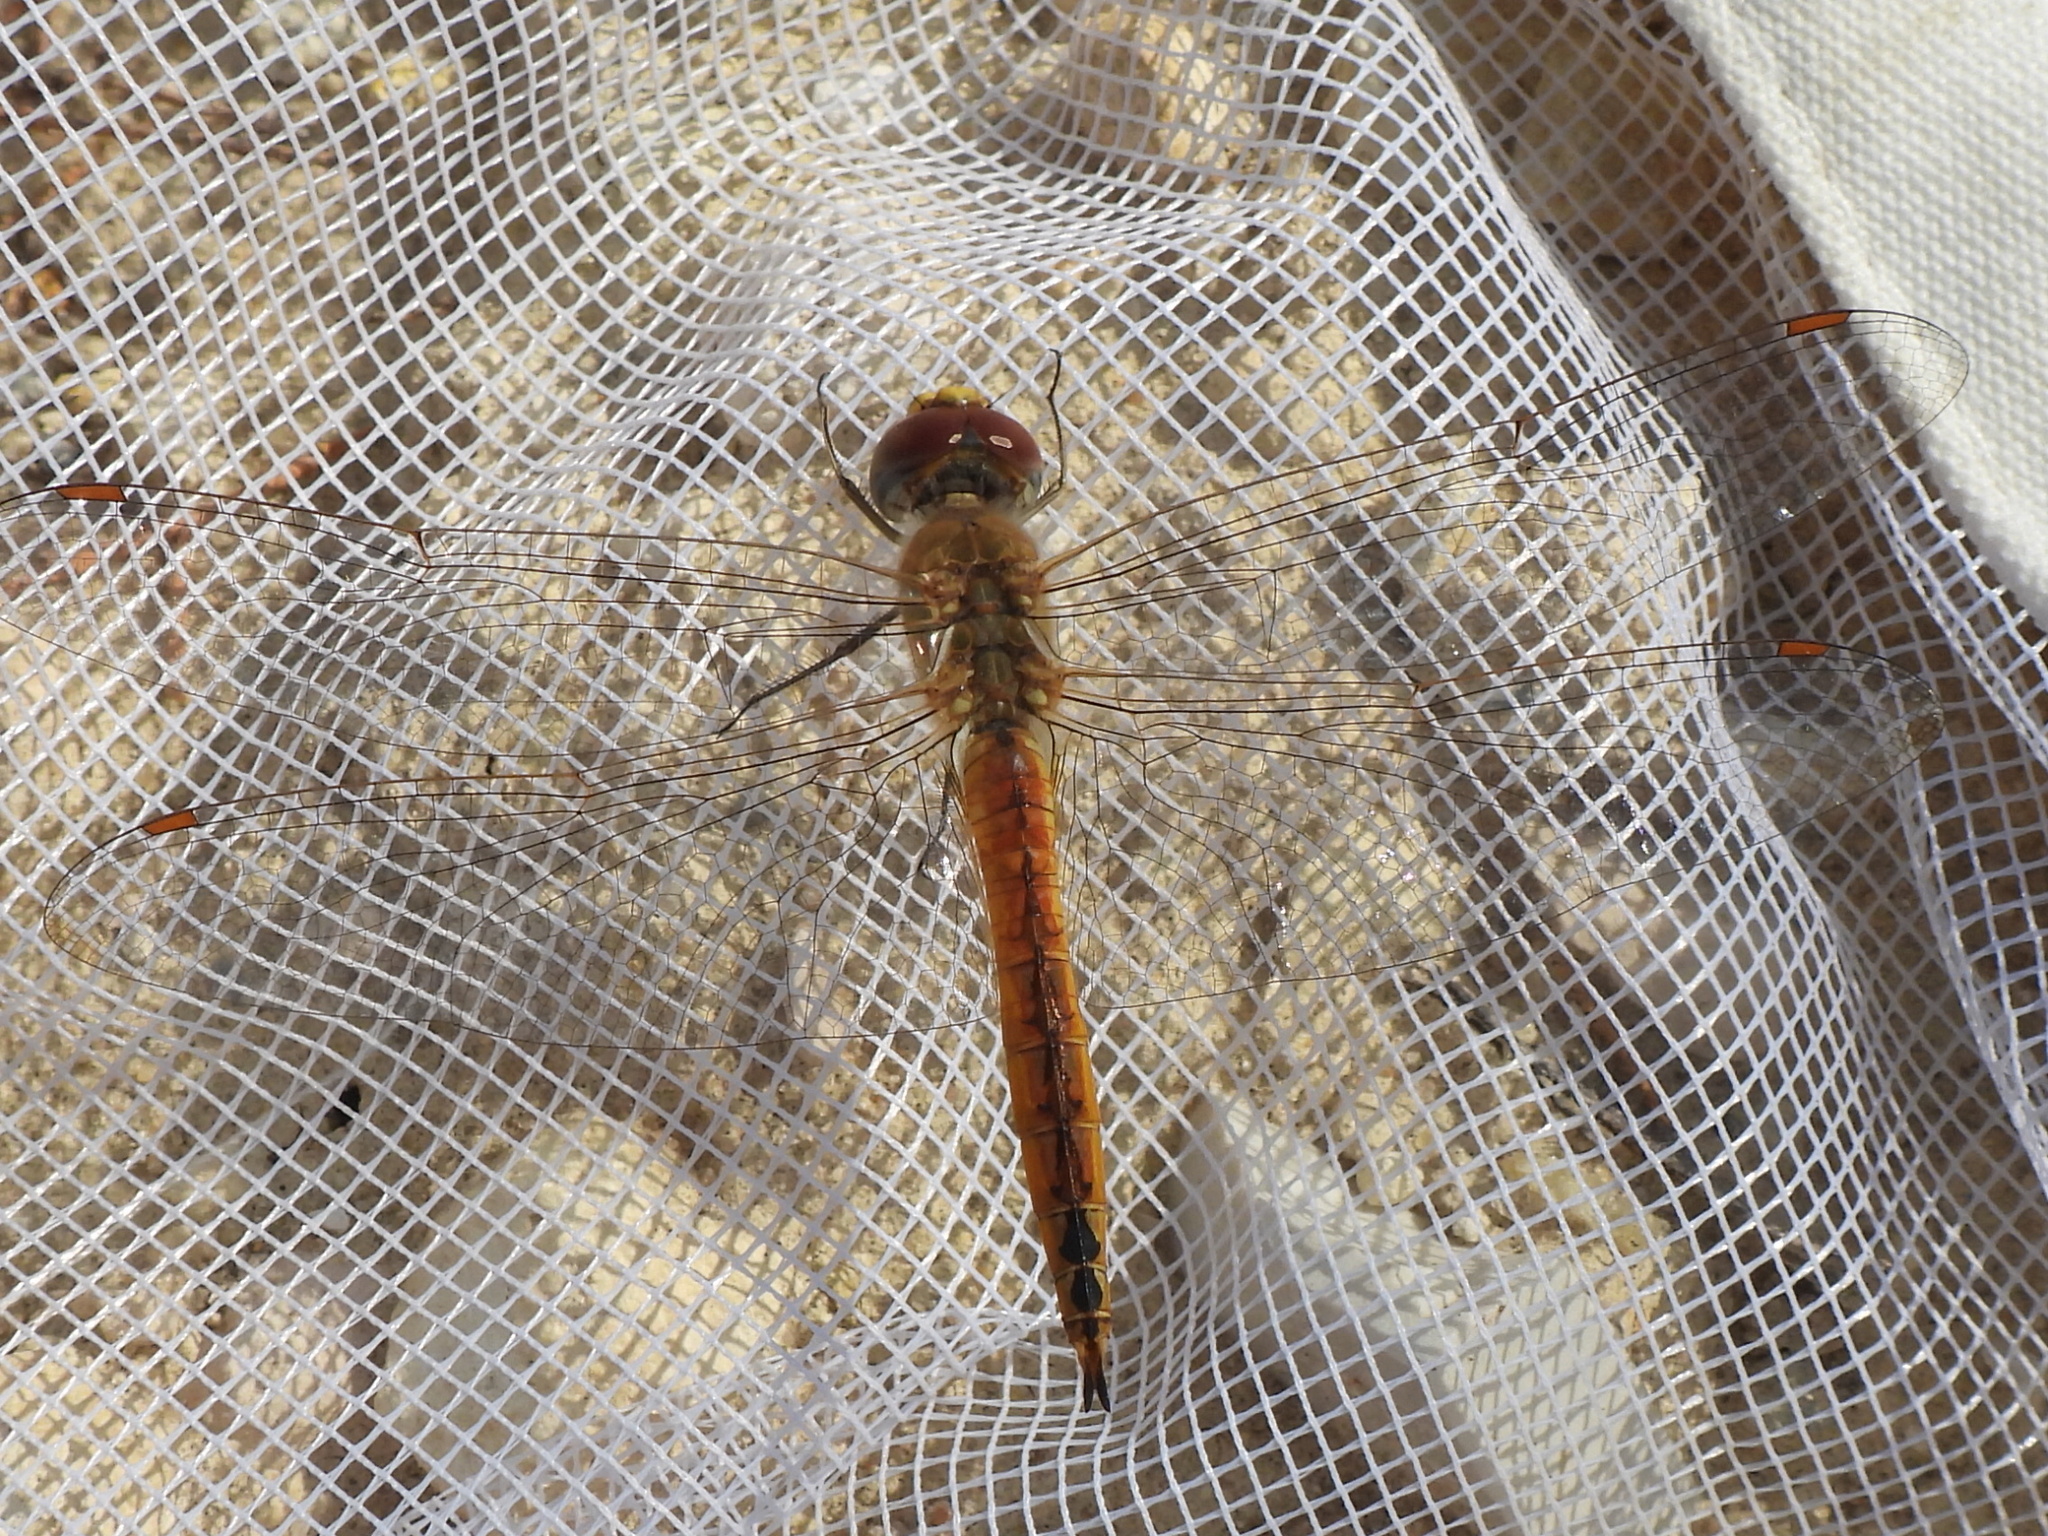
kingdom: Animalia
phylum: Arthropoda
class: Insecta
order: Odonata
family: Libellulidae
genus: Pantala
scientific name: Pantala flavescens
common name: Wandering glider
